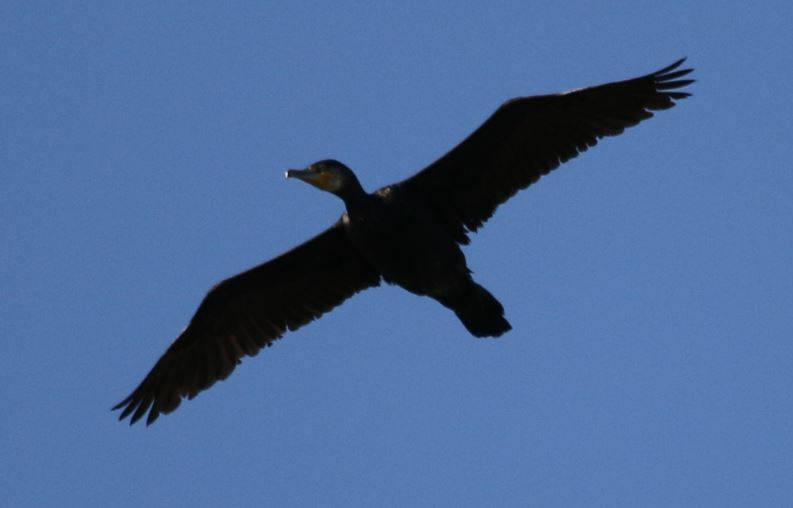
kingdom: Animalia
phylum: Chordata
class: Aves
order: Suliformes
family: Phalacrocoracidae
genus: Phalacrocorax
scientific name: Phalacrocorax carbo
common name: Great cormorant
